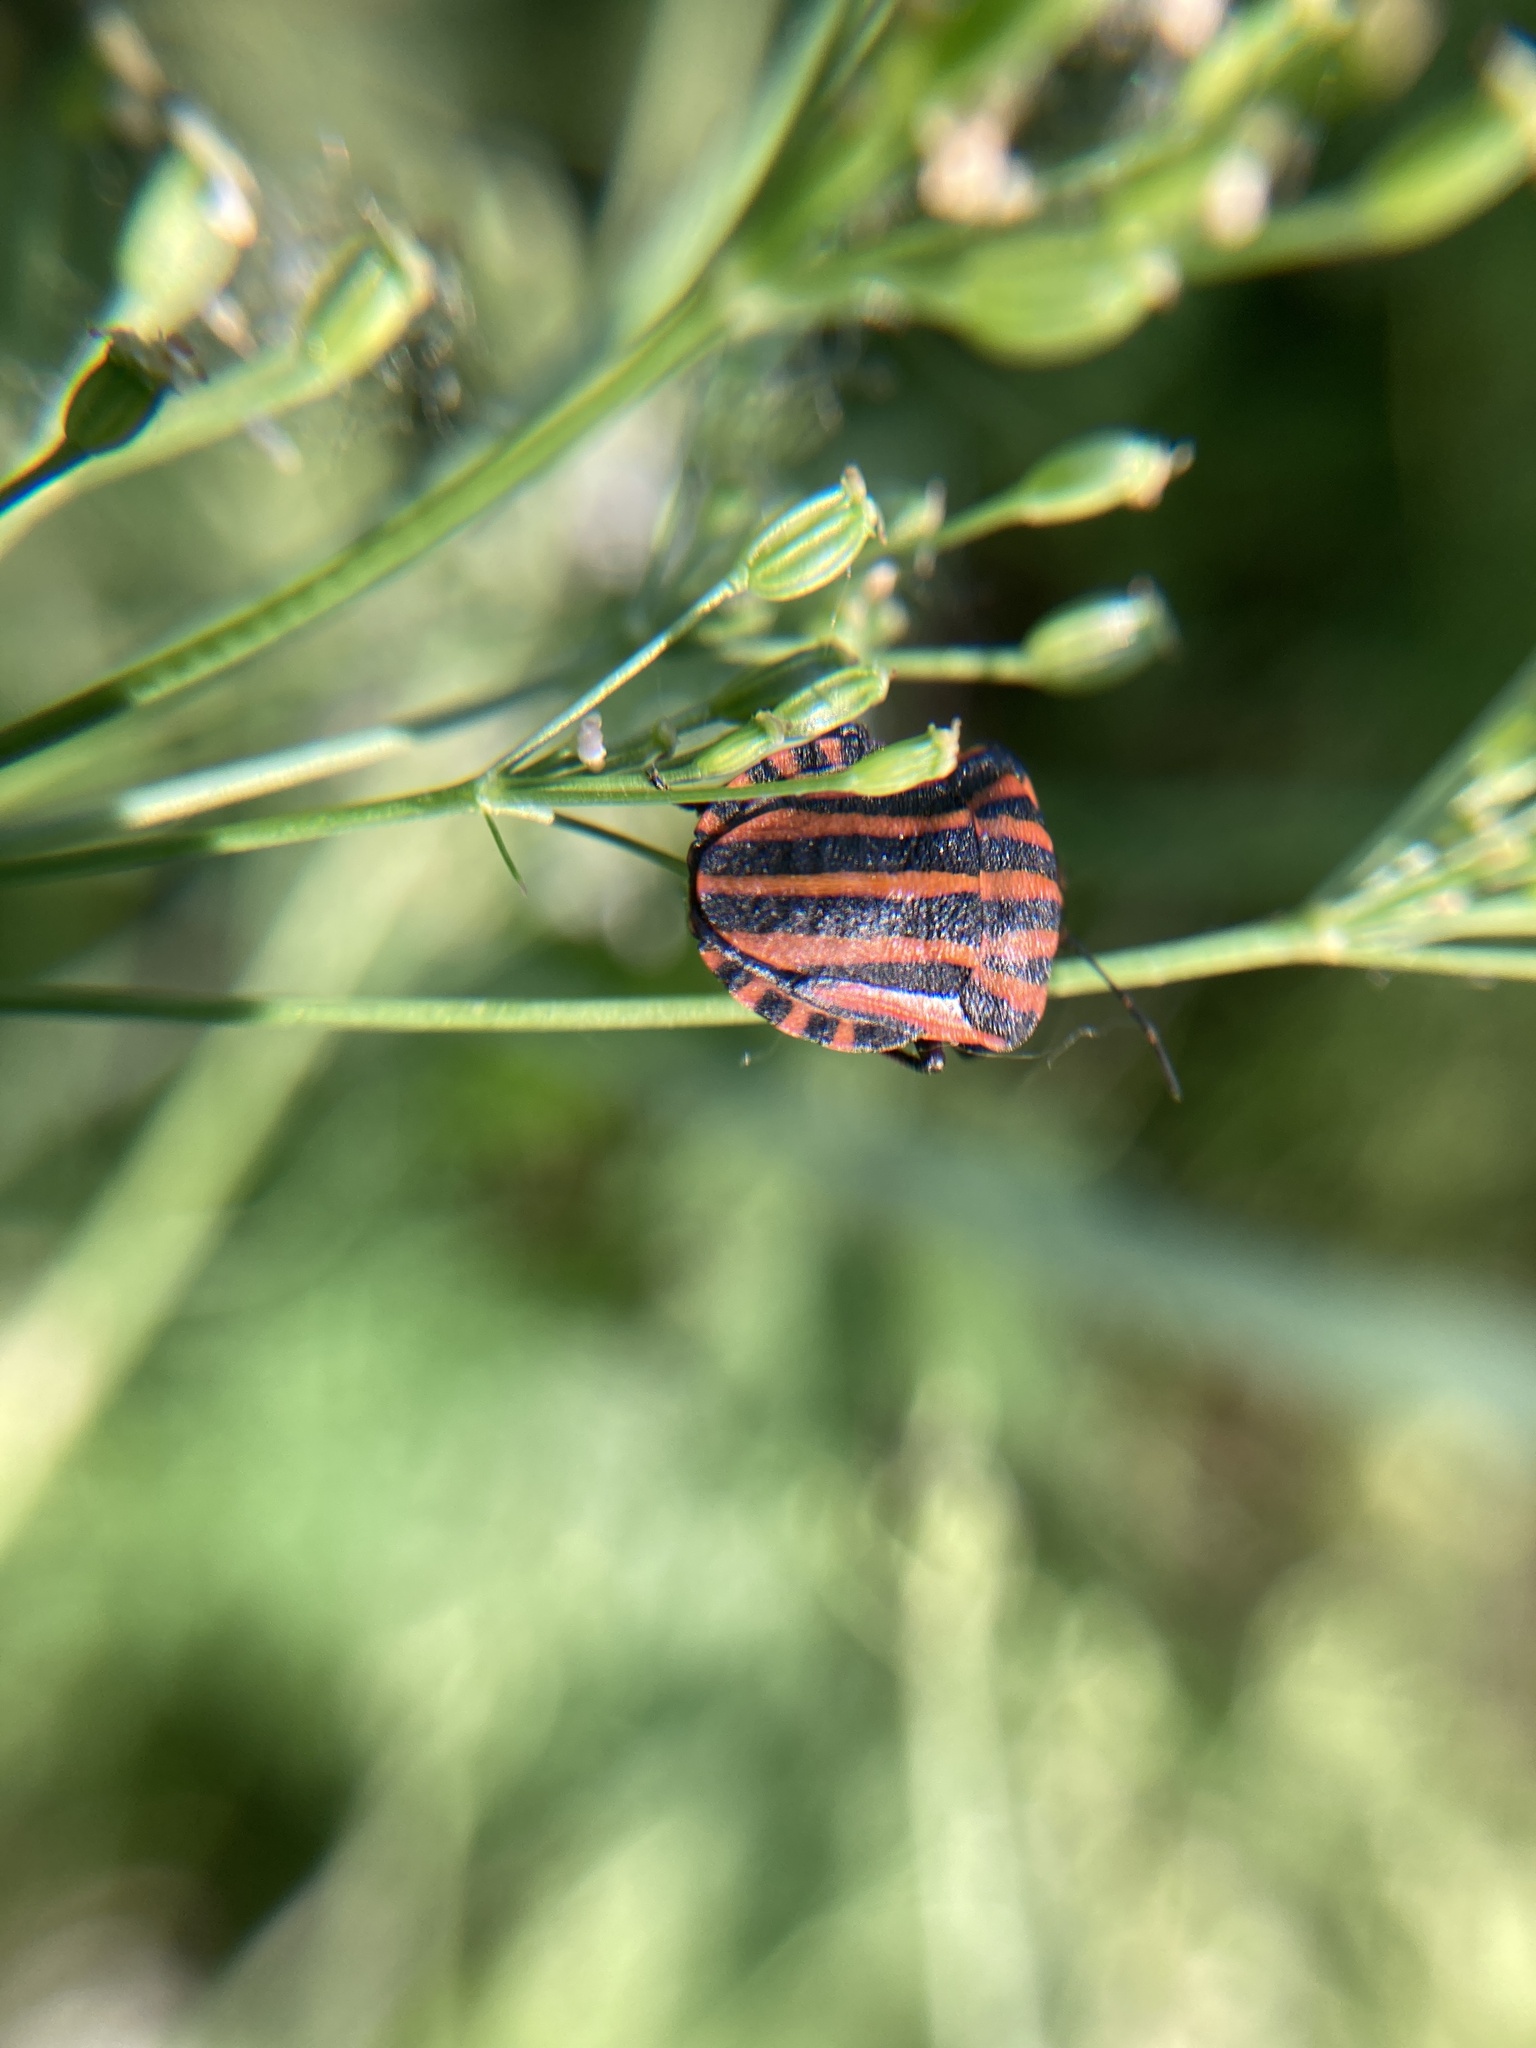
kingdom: Animalia
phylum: Arthropoda
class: Insecta
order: Hemiptera
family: Pentatomidae
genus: Graphosoma
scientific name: Graphosoma italicum
